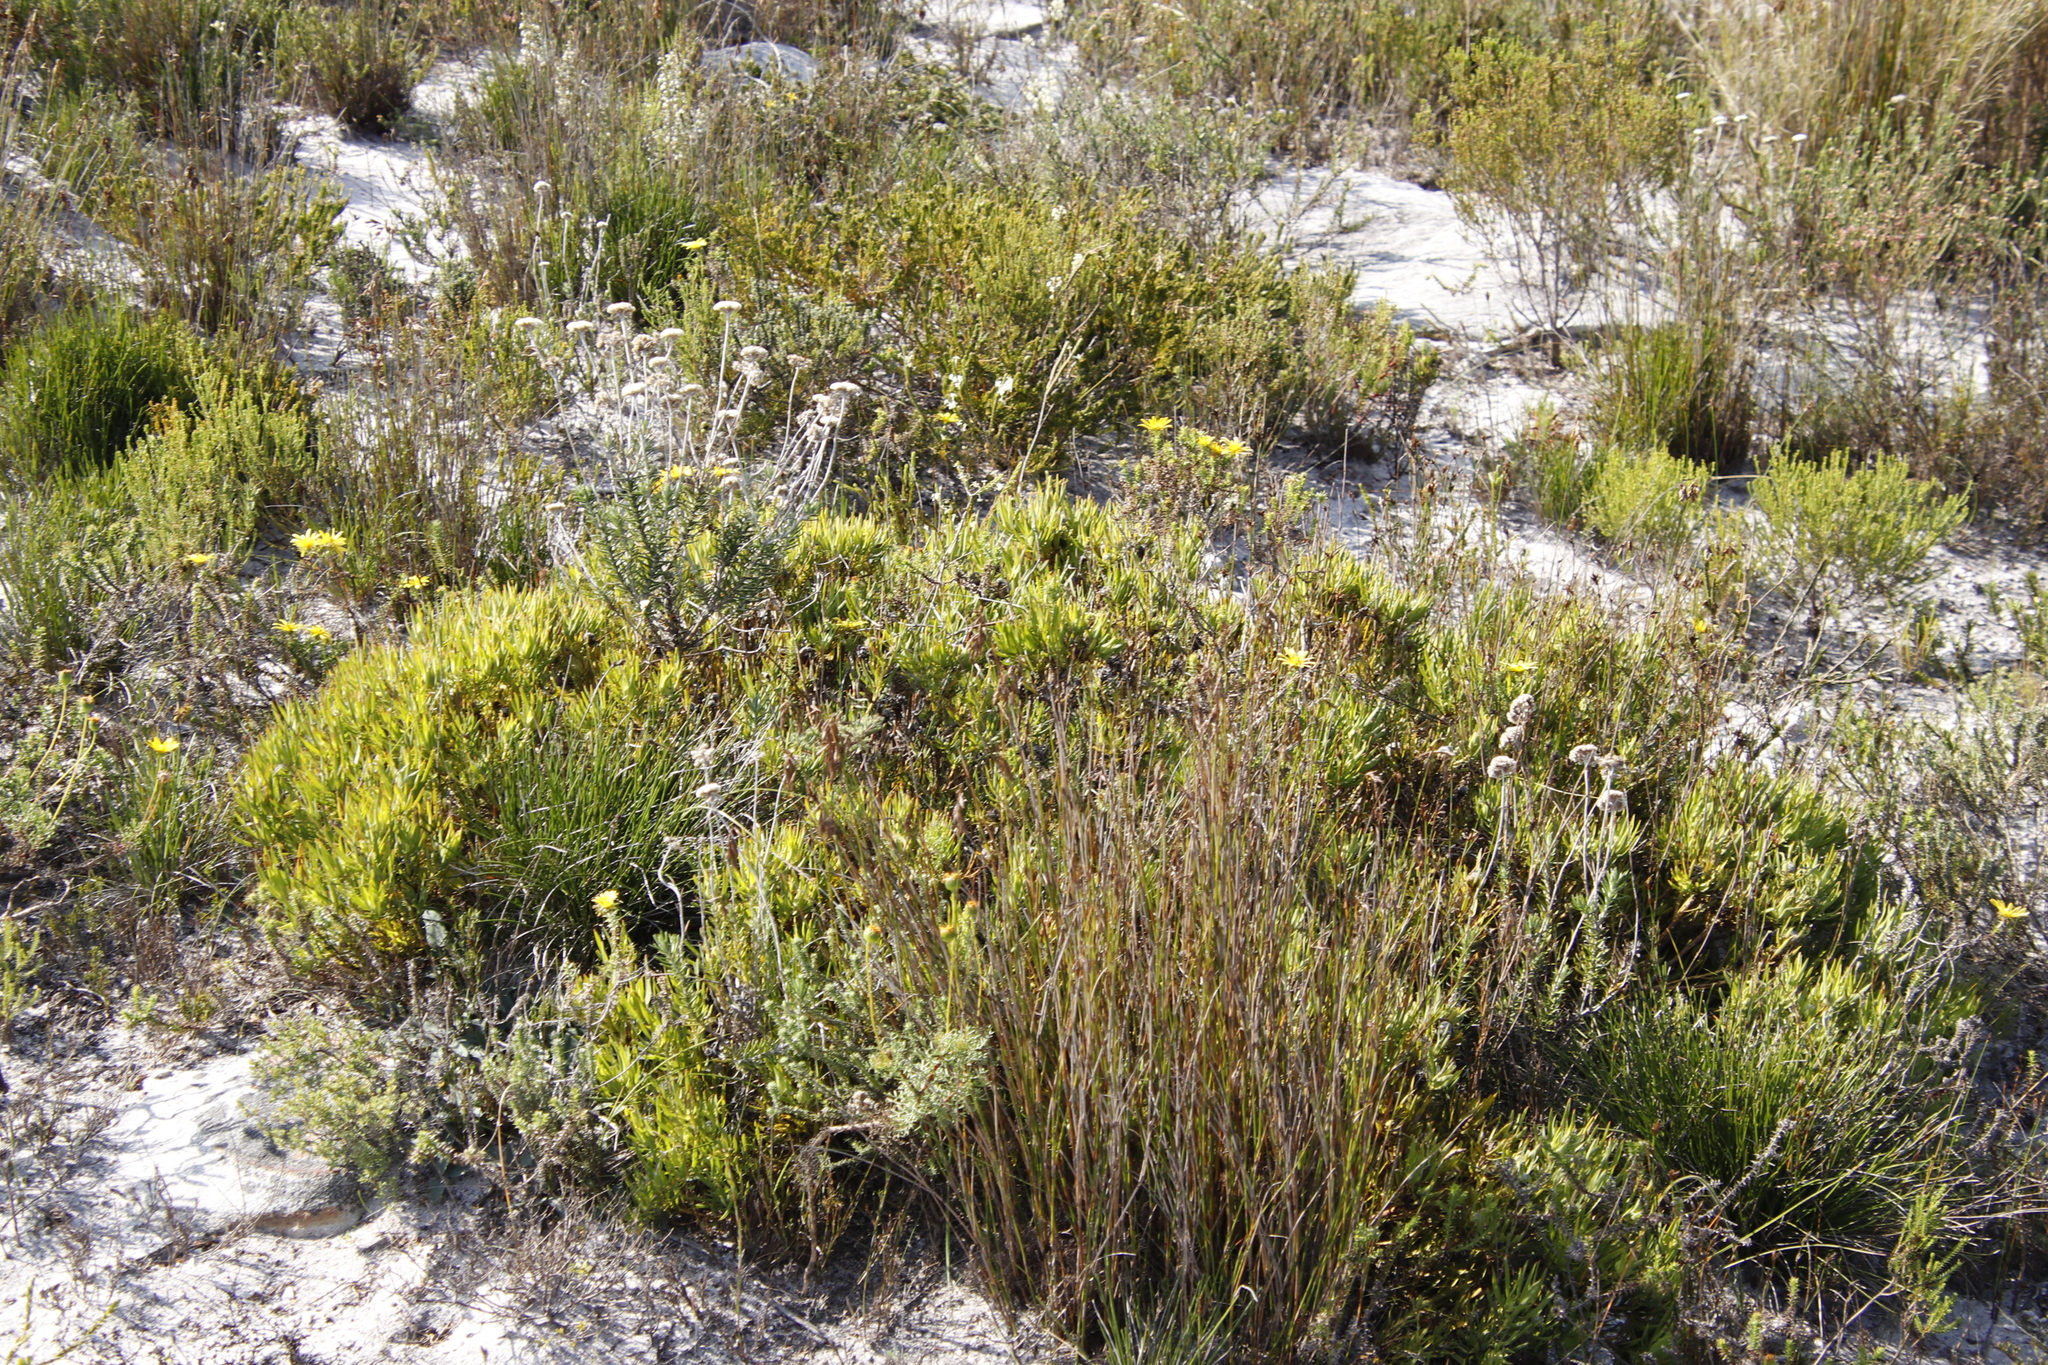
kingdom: Plantae
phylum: Tracheophyta
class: Magnoliopsida
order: Proteales
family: Proteaceae
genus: Leucadendron
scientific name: Leucadendron salignum
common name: Common sunshine conebush
